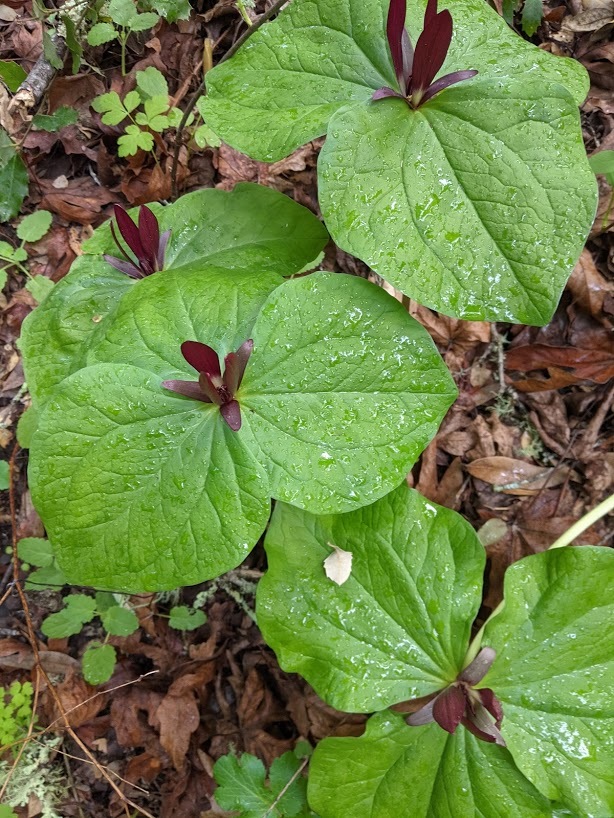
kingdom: Plantae
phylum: Tracheophyta
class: Liliopsida
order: Liliales
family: Melanthiaceae
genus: Trillium
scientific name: Trillium chloropetalum
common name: Giant trillium
